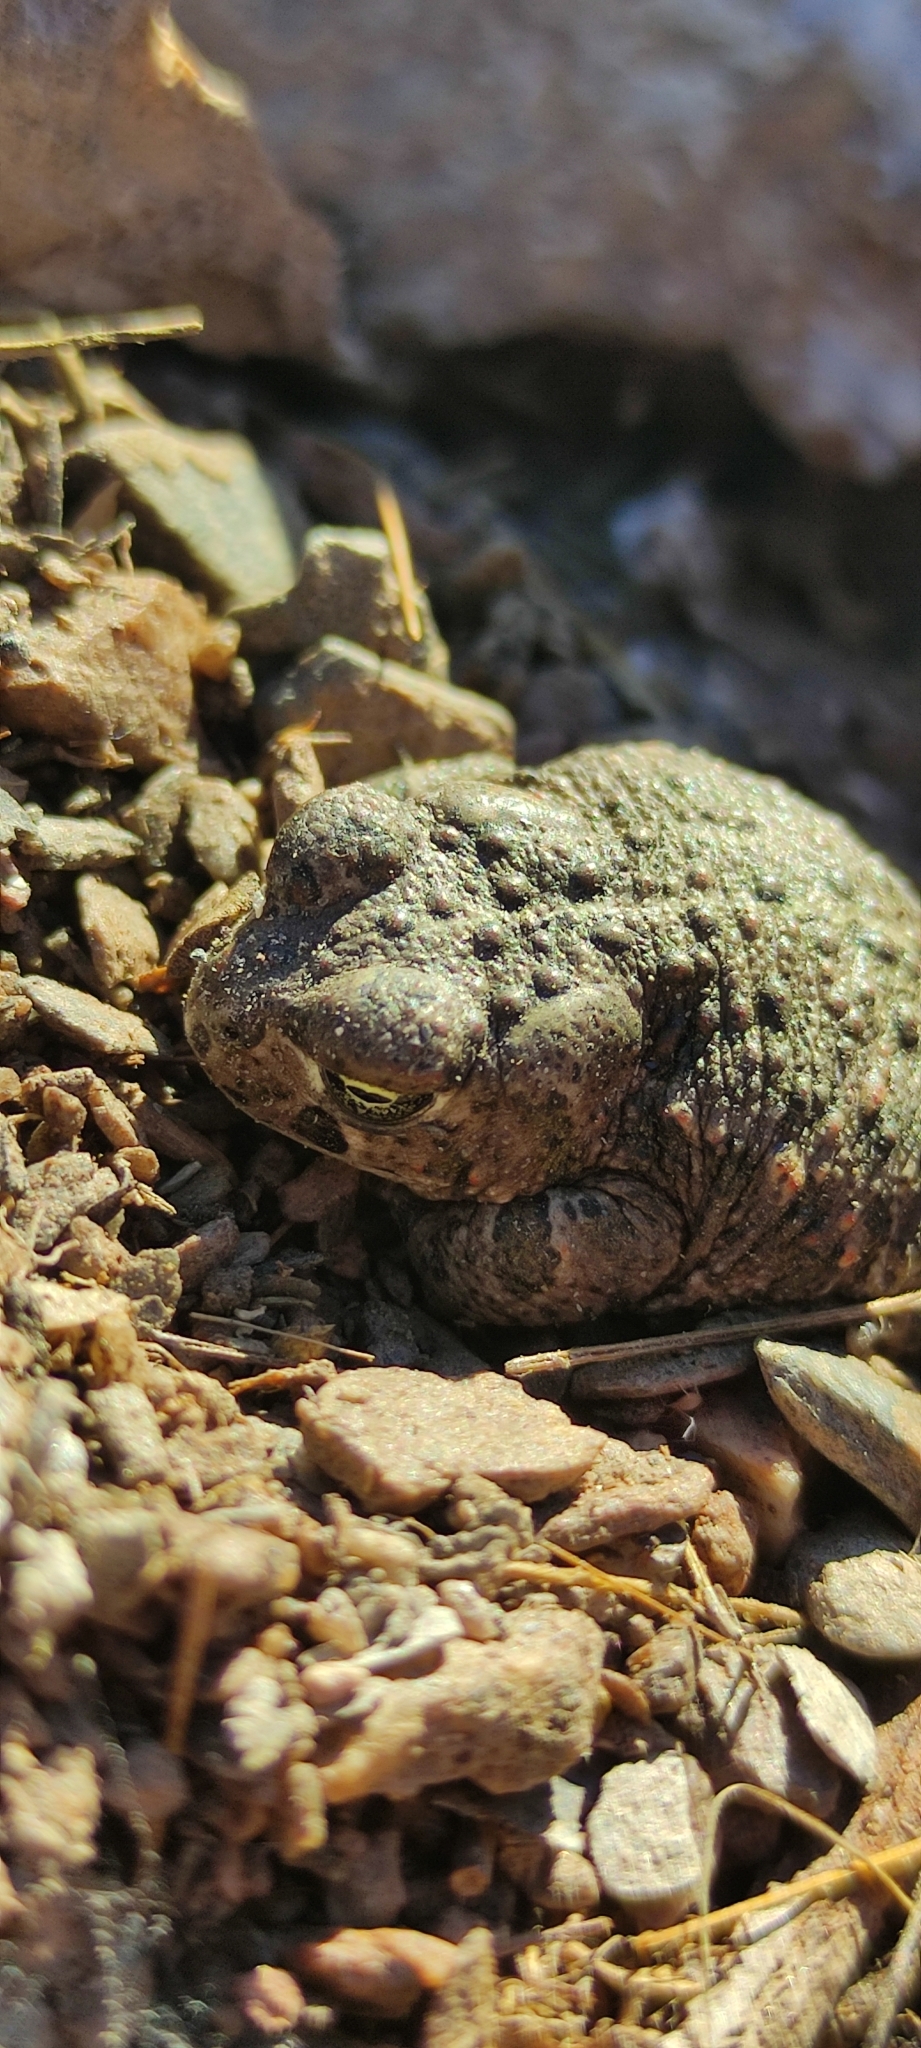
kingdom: Animalia
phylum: Chordata
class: Amphibia
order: Anura
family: Bufonidae
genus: Epidalea
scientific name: Epidalea calamita
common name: Natterjack toad
